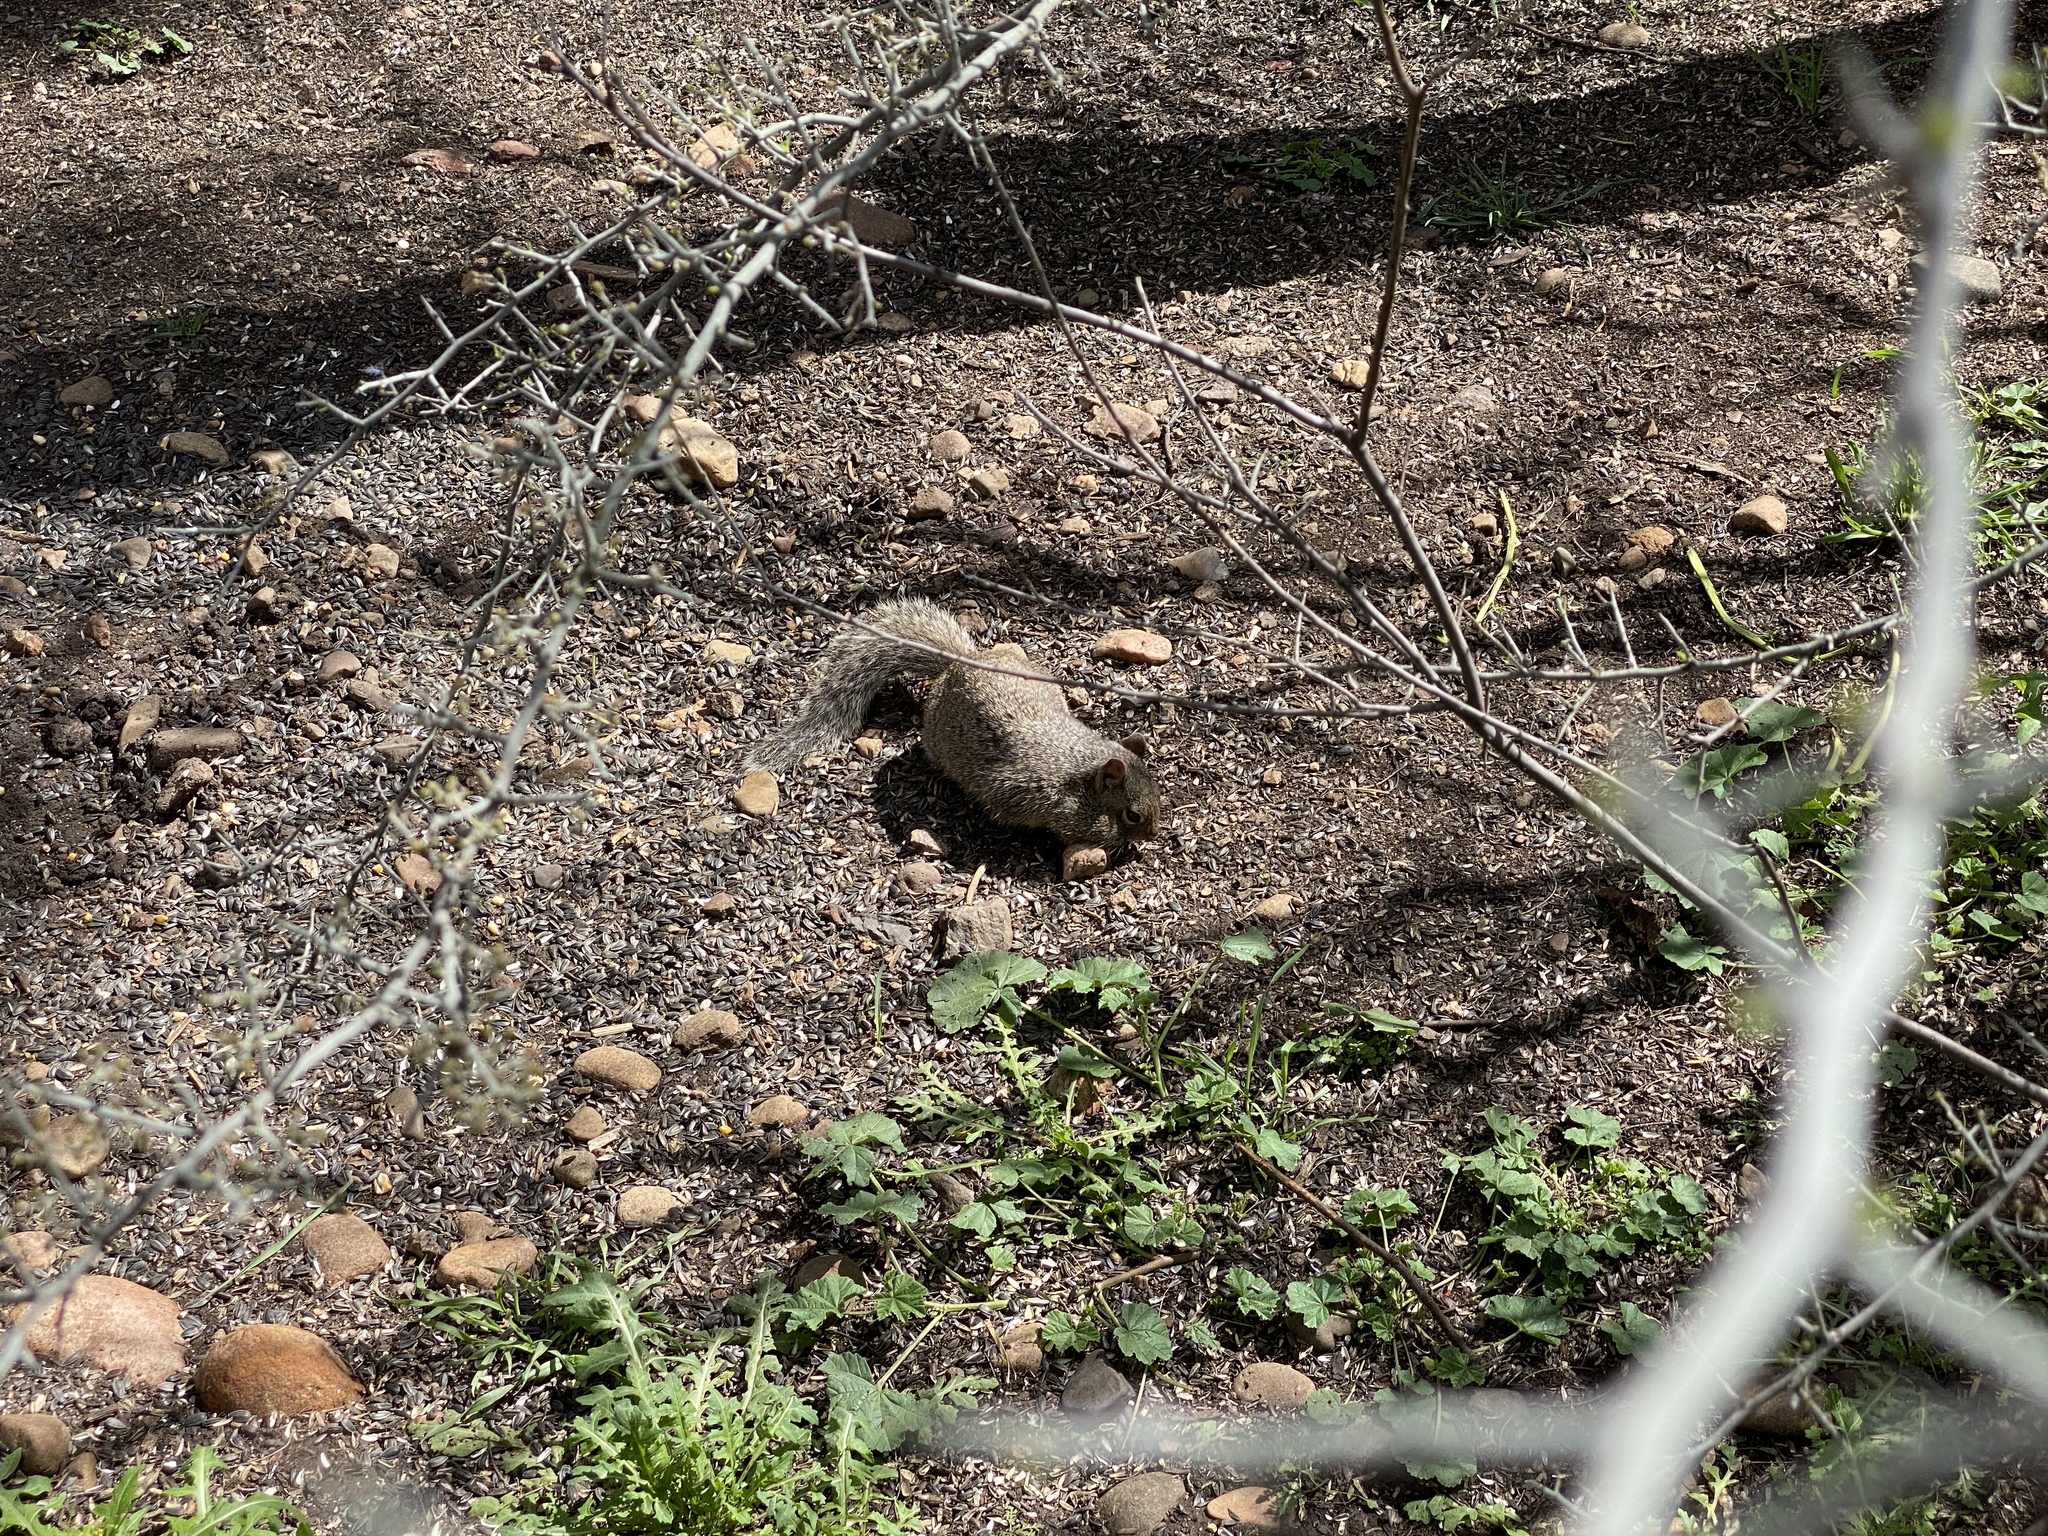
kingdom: Animalia
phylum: Chordata
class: Mammalia
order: Rodentia
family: Sciuridae
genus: Otospermophilus
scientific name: Otospermophilus variegatus
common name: Rock squirrel
